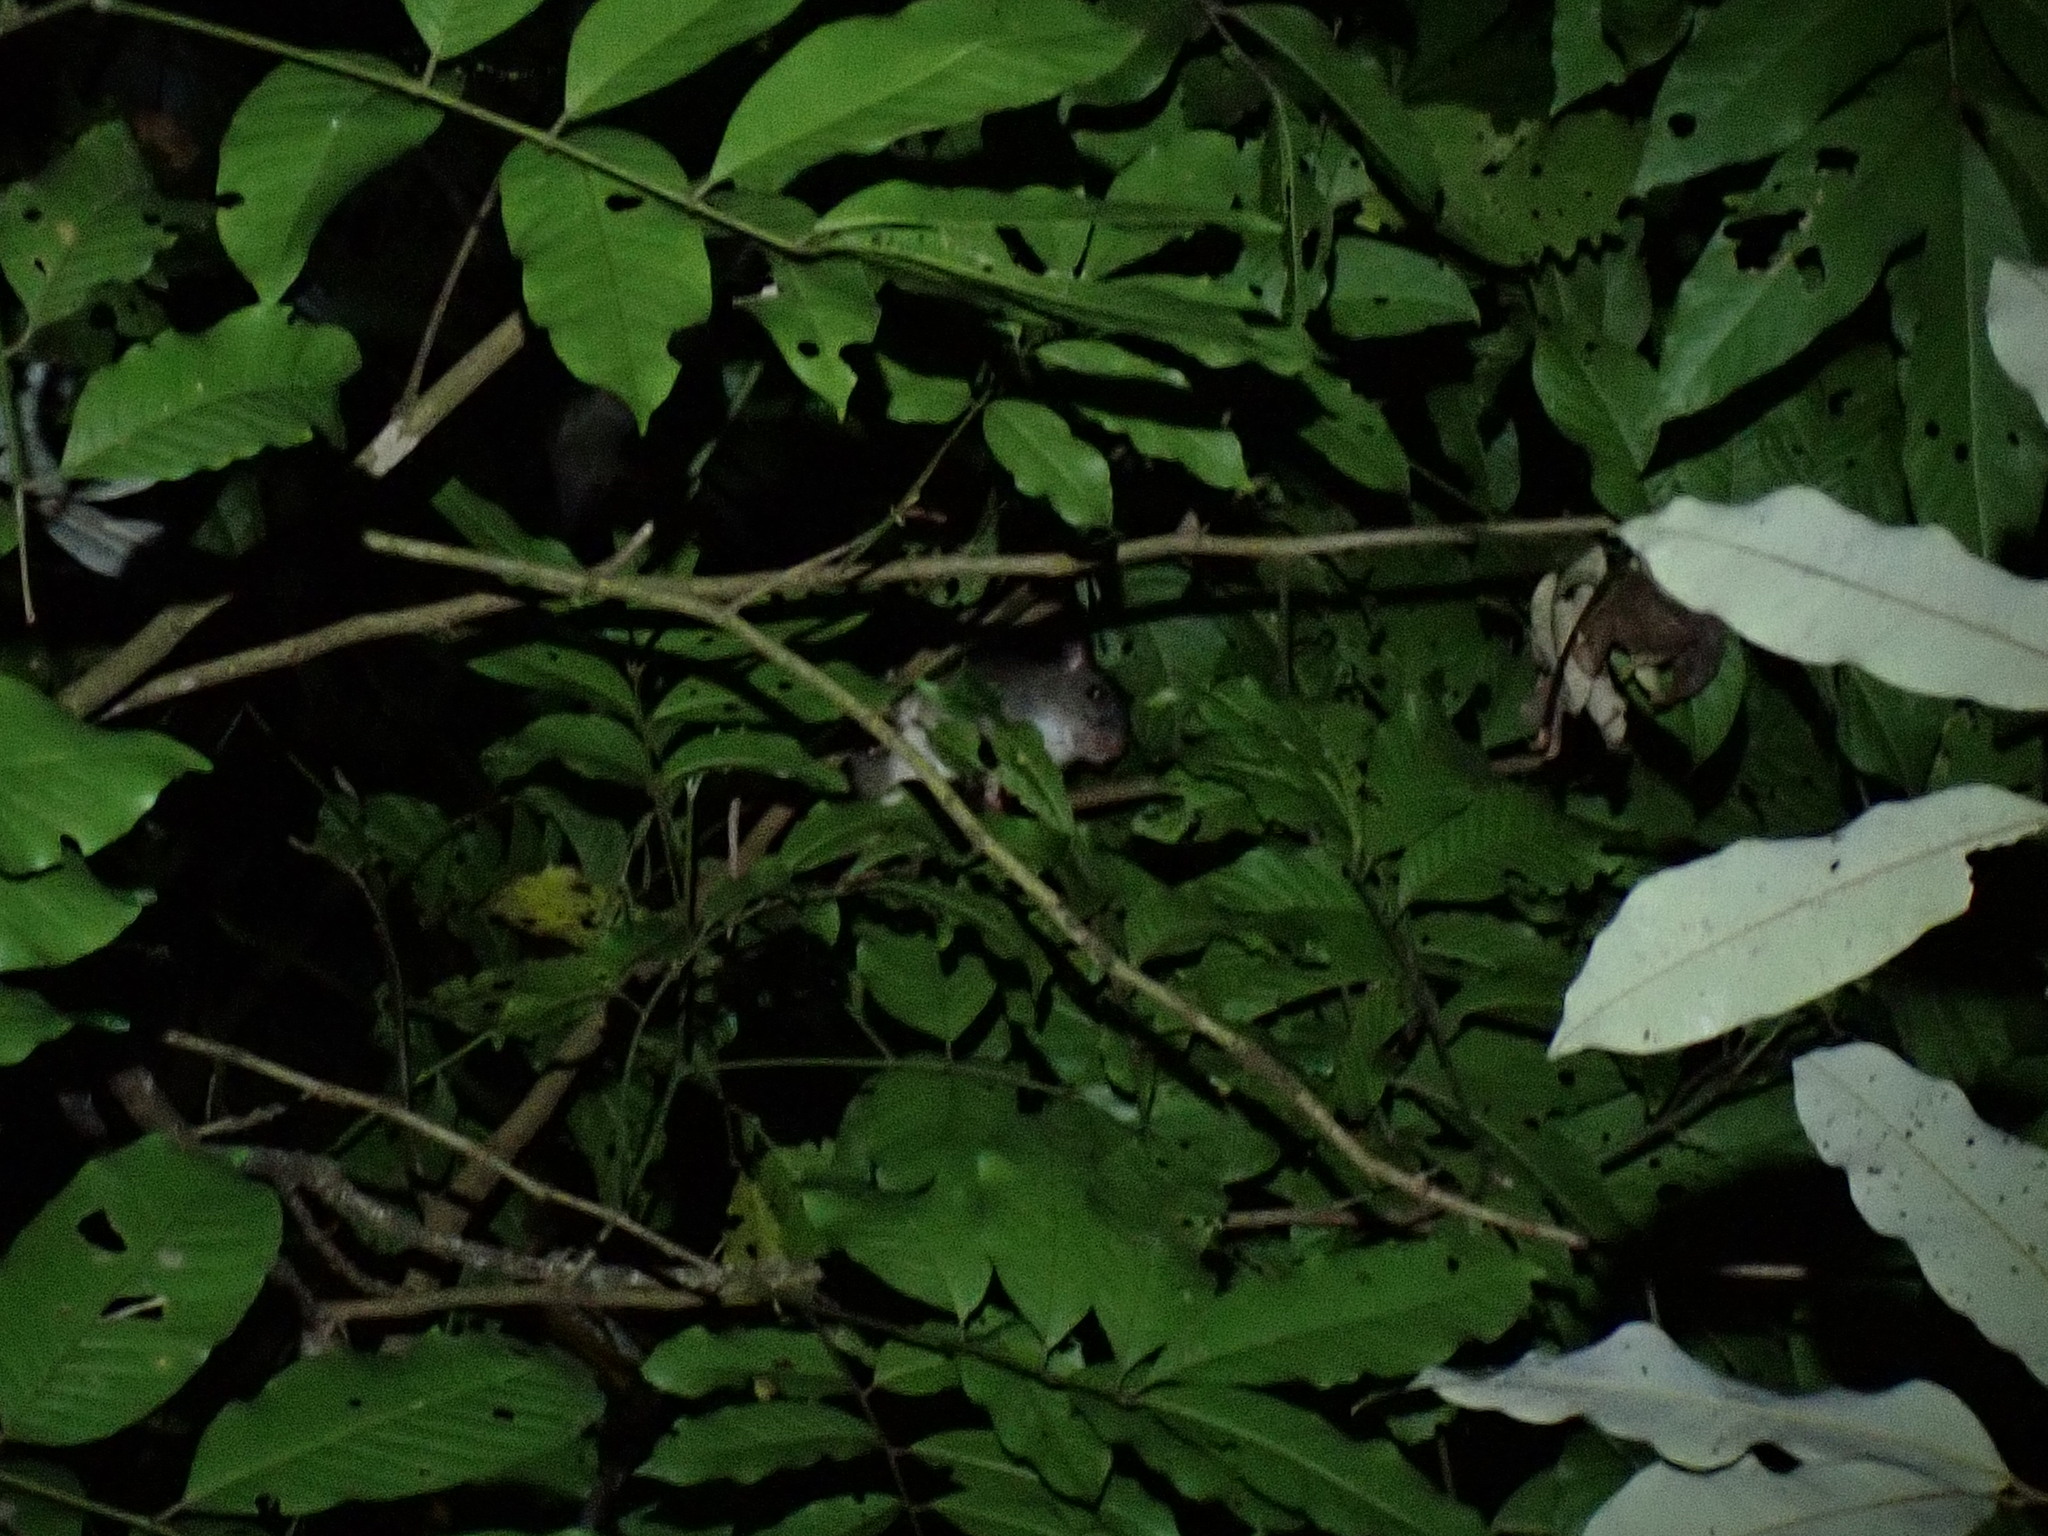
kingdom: Animalia
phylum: Chordata
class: Mammalia
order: Rodentia
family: Muridae
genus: Uromys
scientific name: Uromys caudimaculatus
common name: Giant white-tailed uromys
